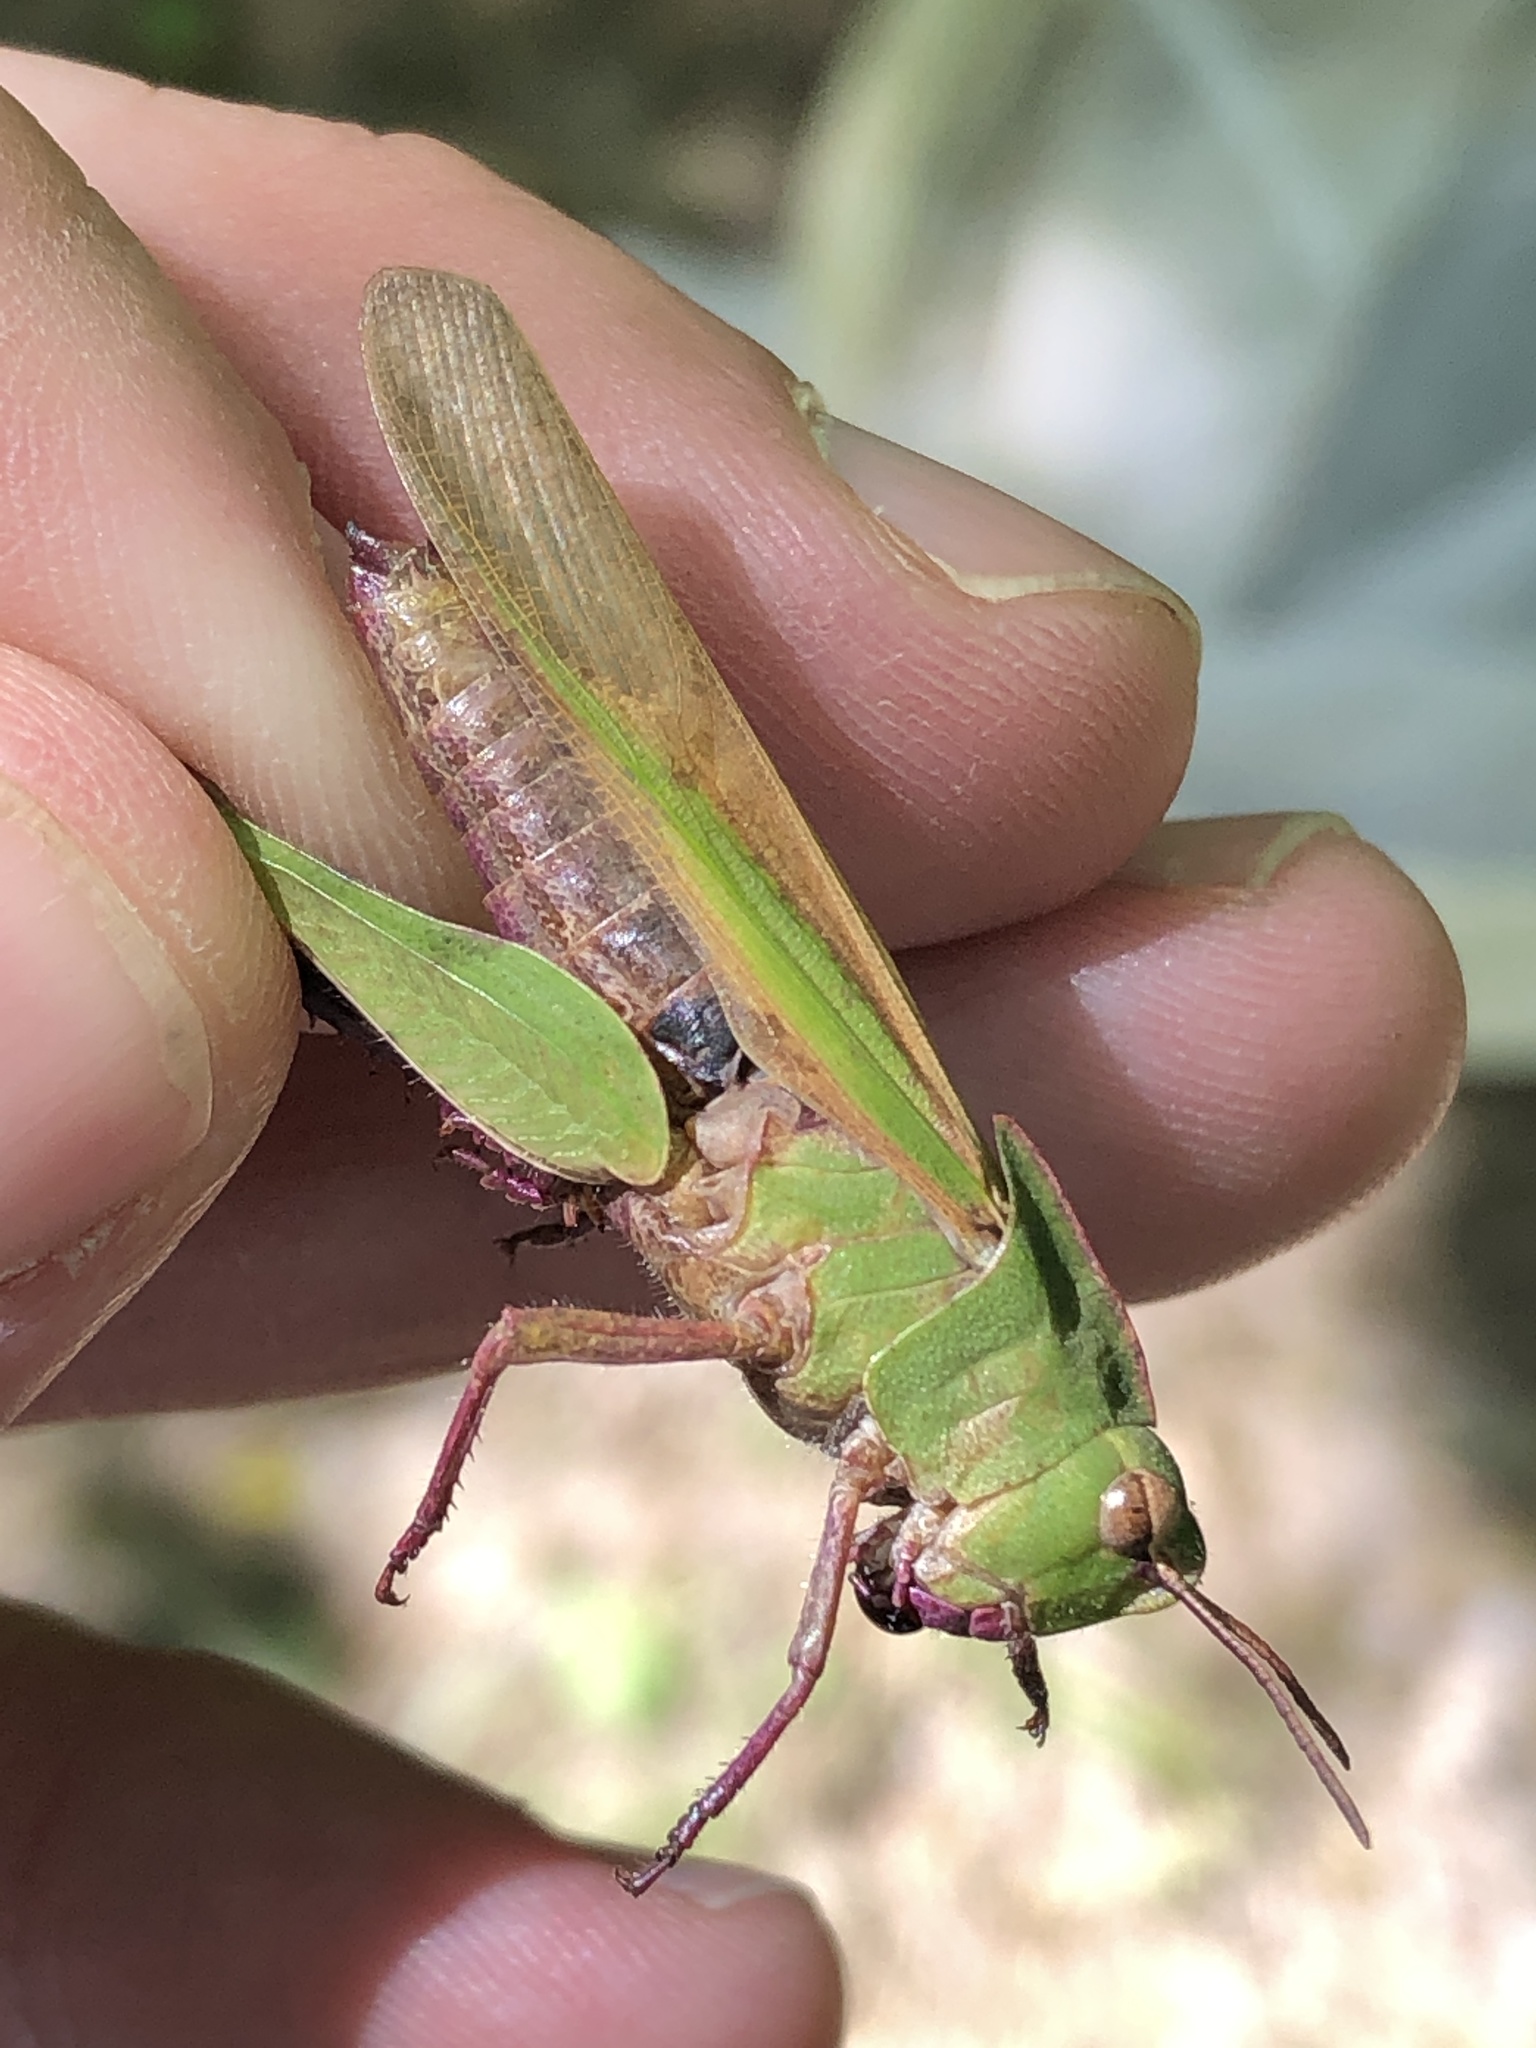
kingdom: Animalia
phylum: Arthropoda
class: Insecta
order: Orthoptera
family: Acrididae
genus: Chortophaga
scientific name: Chortophaga viridifasciata
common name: Green-striped grasshopper
